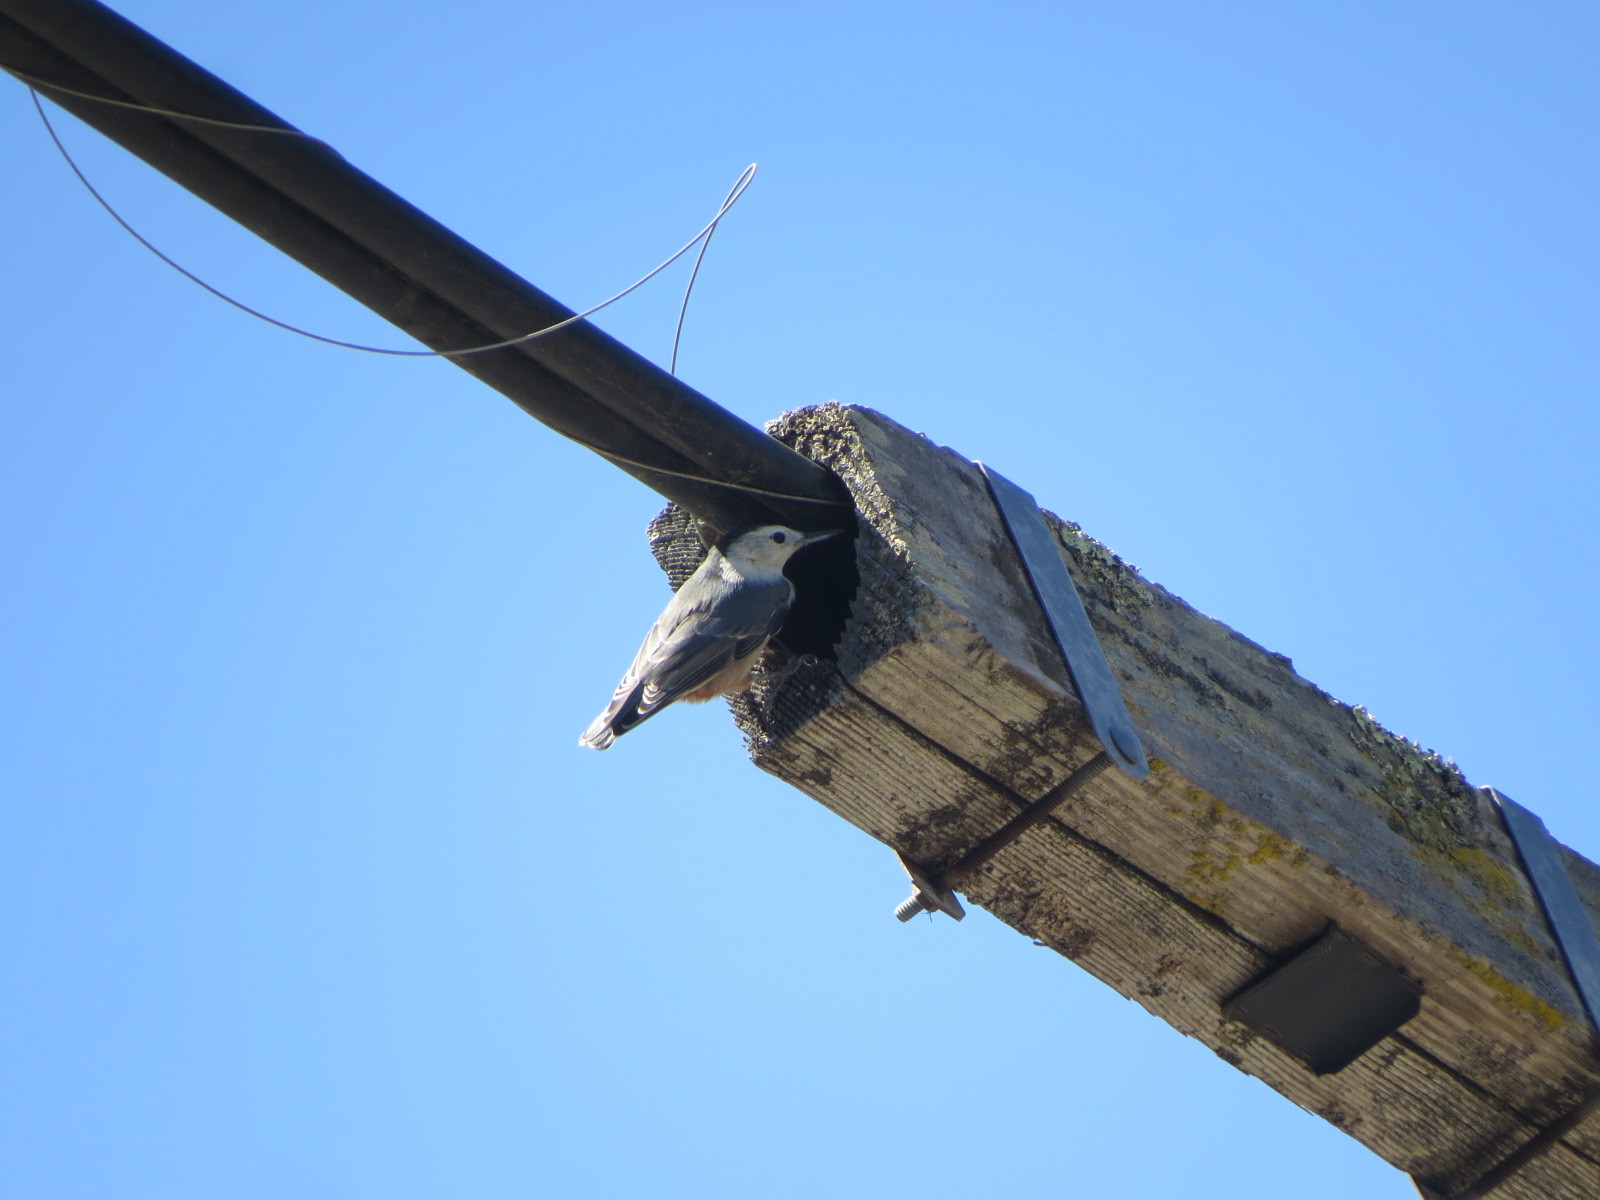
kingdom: Animalia
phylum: Chordata
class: Aves
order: Passeriformes
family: Sittidae
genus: Sitta
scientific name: Sitta carolinensis
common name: White-breasted nuthatch
